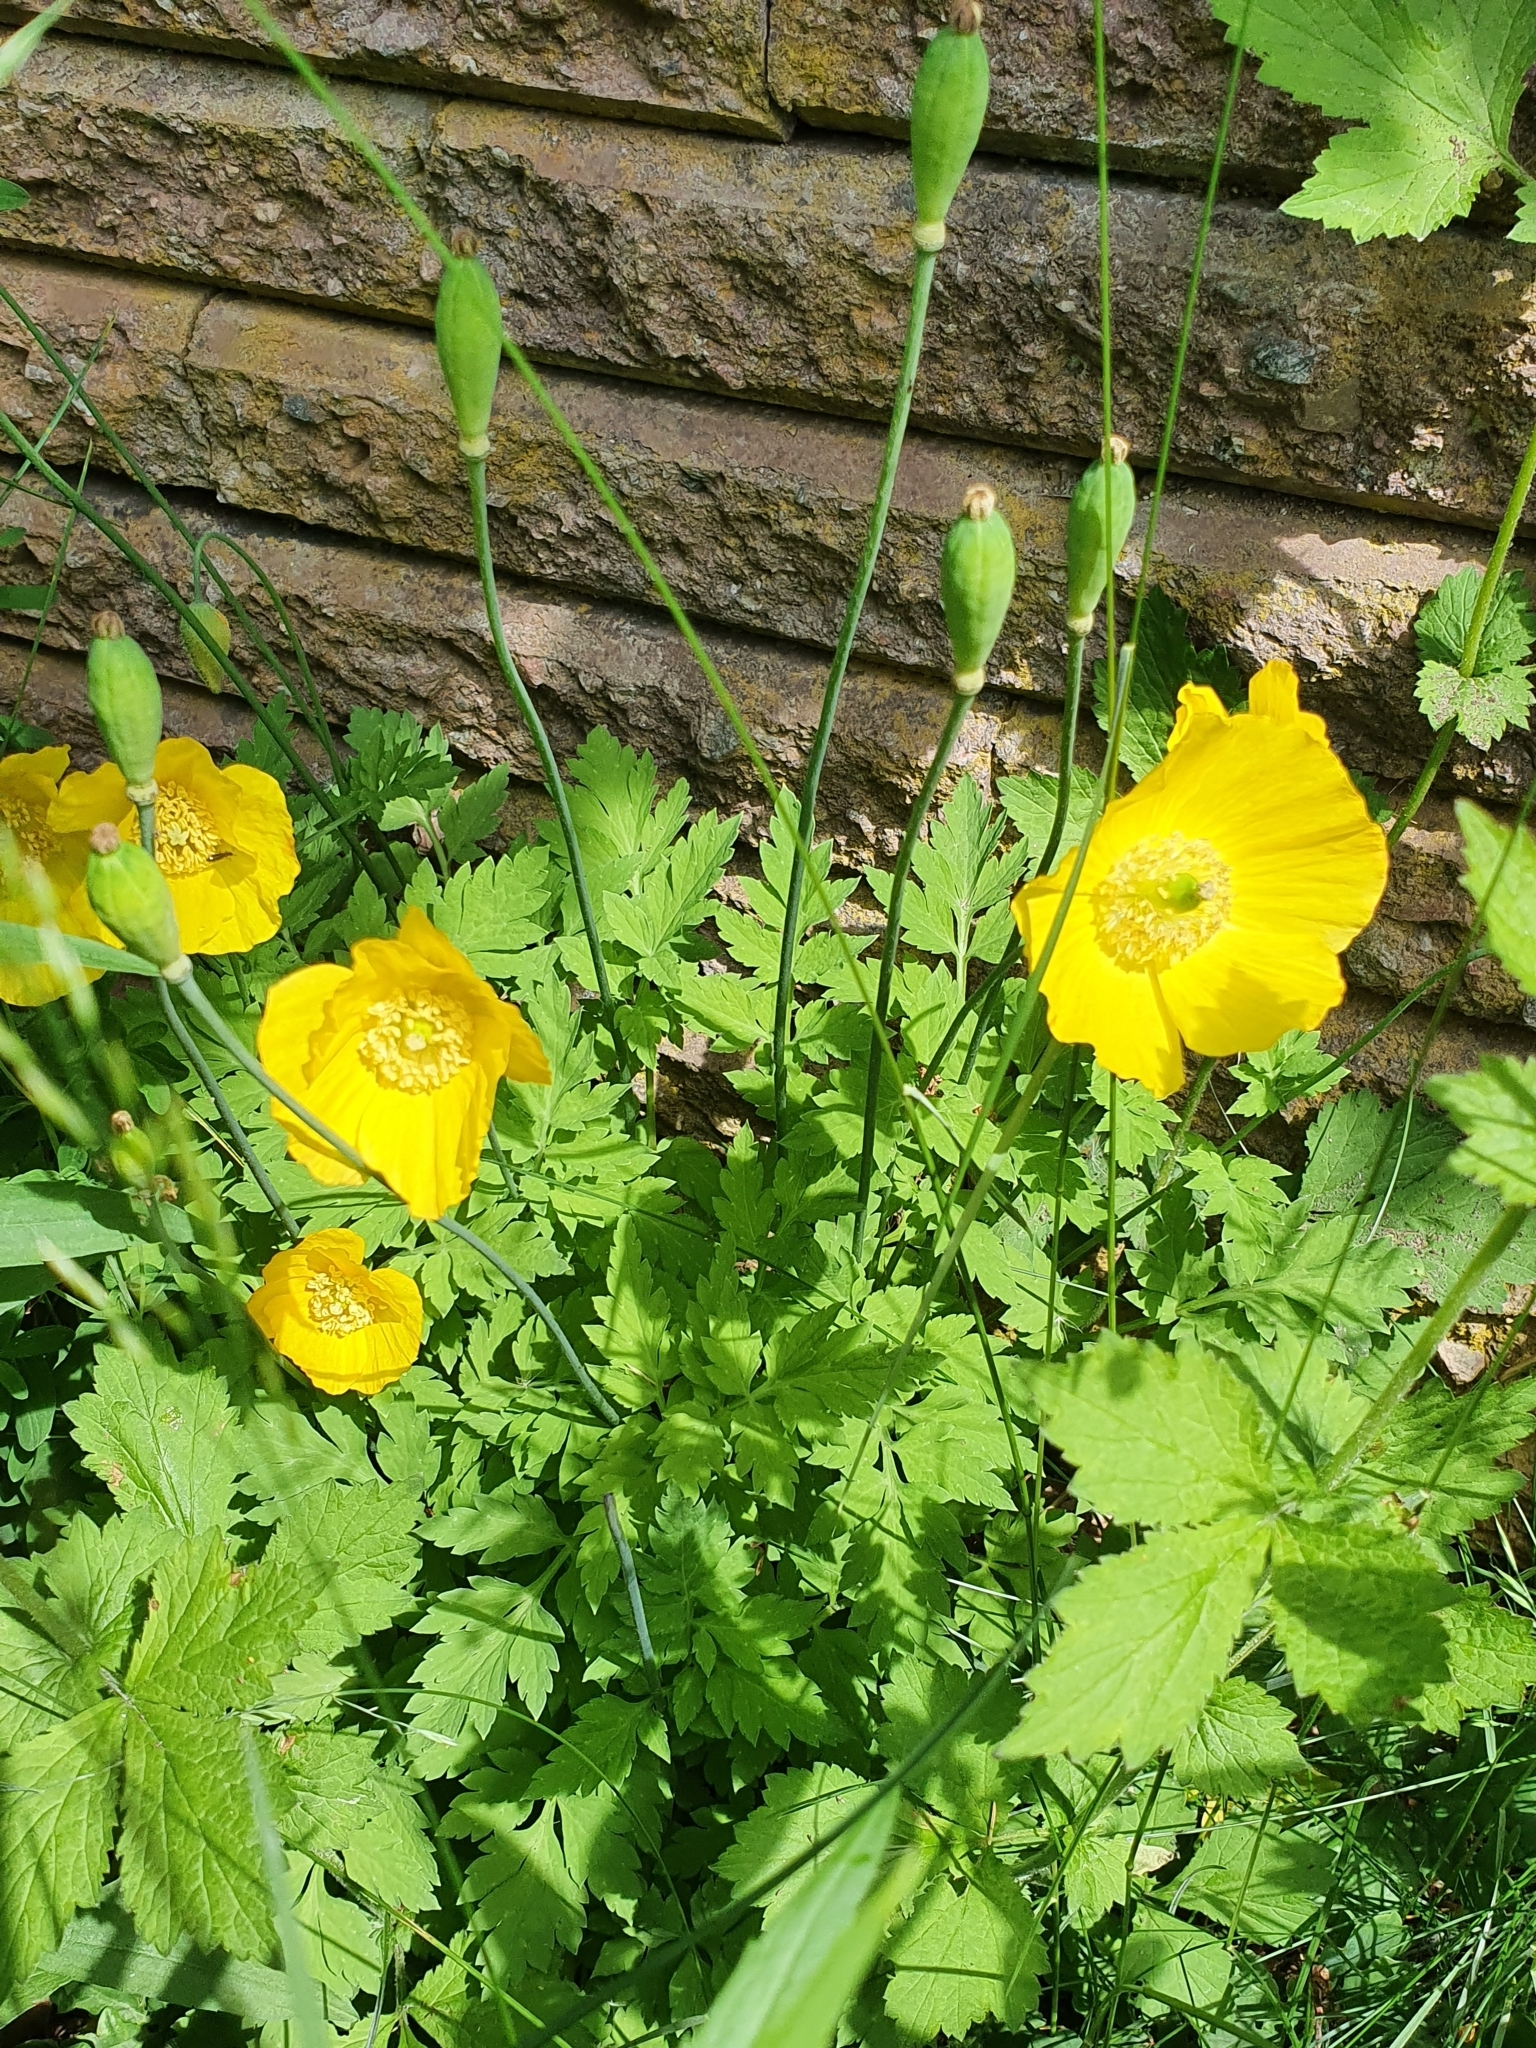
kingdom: Plantae
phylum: Tracheophyta
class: Magnoliopsida
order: Ranunculales
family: Papaveraceae
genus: Papaver
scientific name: Papaver cambricum
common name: Poppy
